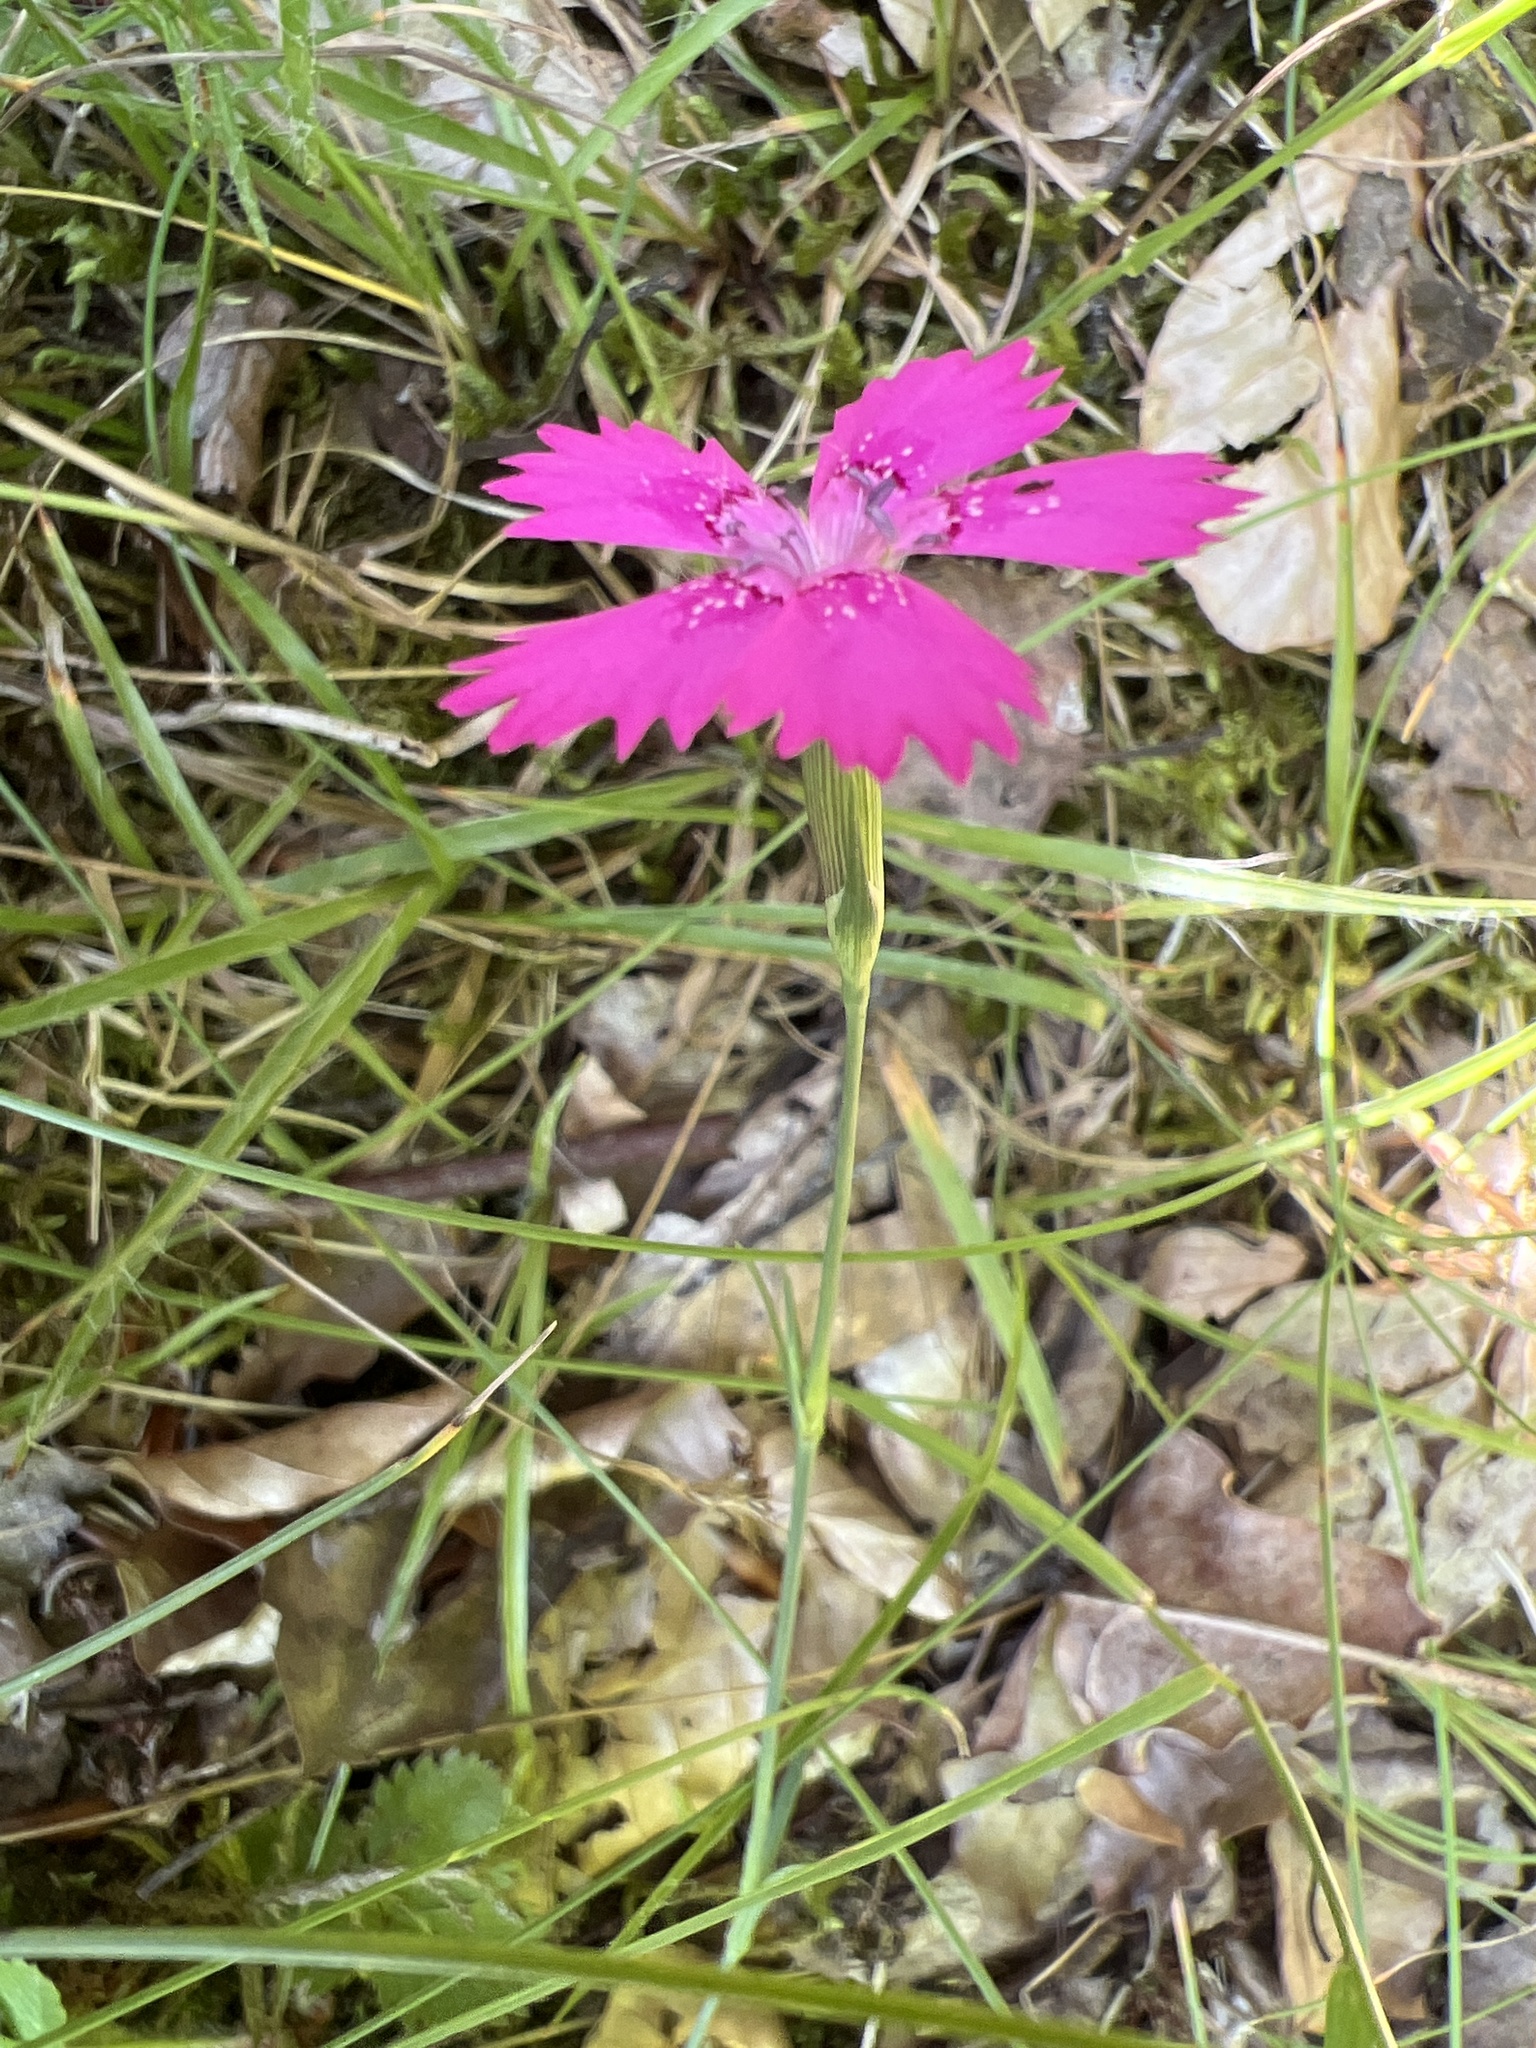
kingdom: Plantae
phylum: Tracheophyta
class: Magnoliopsida
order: Caryophyllales
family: Caryophyllaceae
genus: Dianthus
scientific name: Dianthus deltoides
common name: Maiden pink
